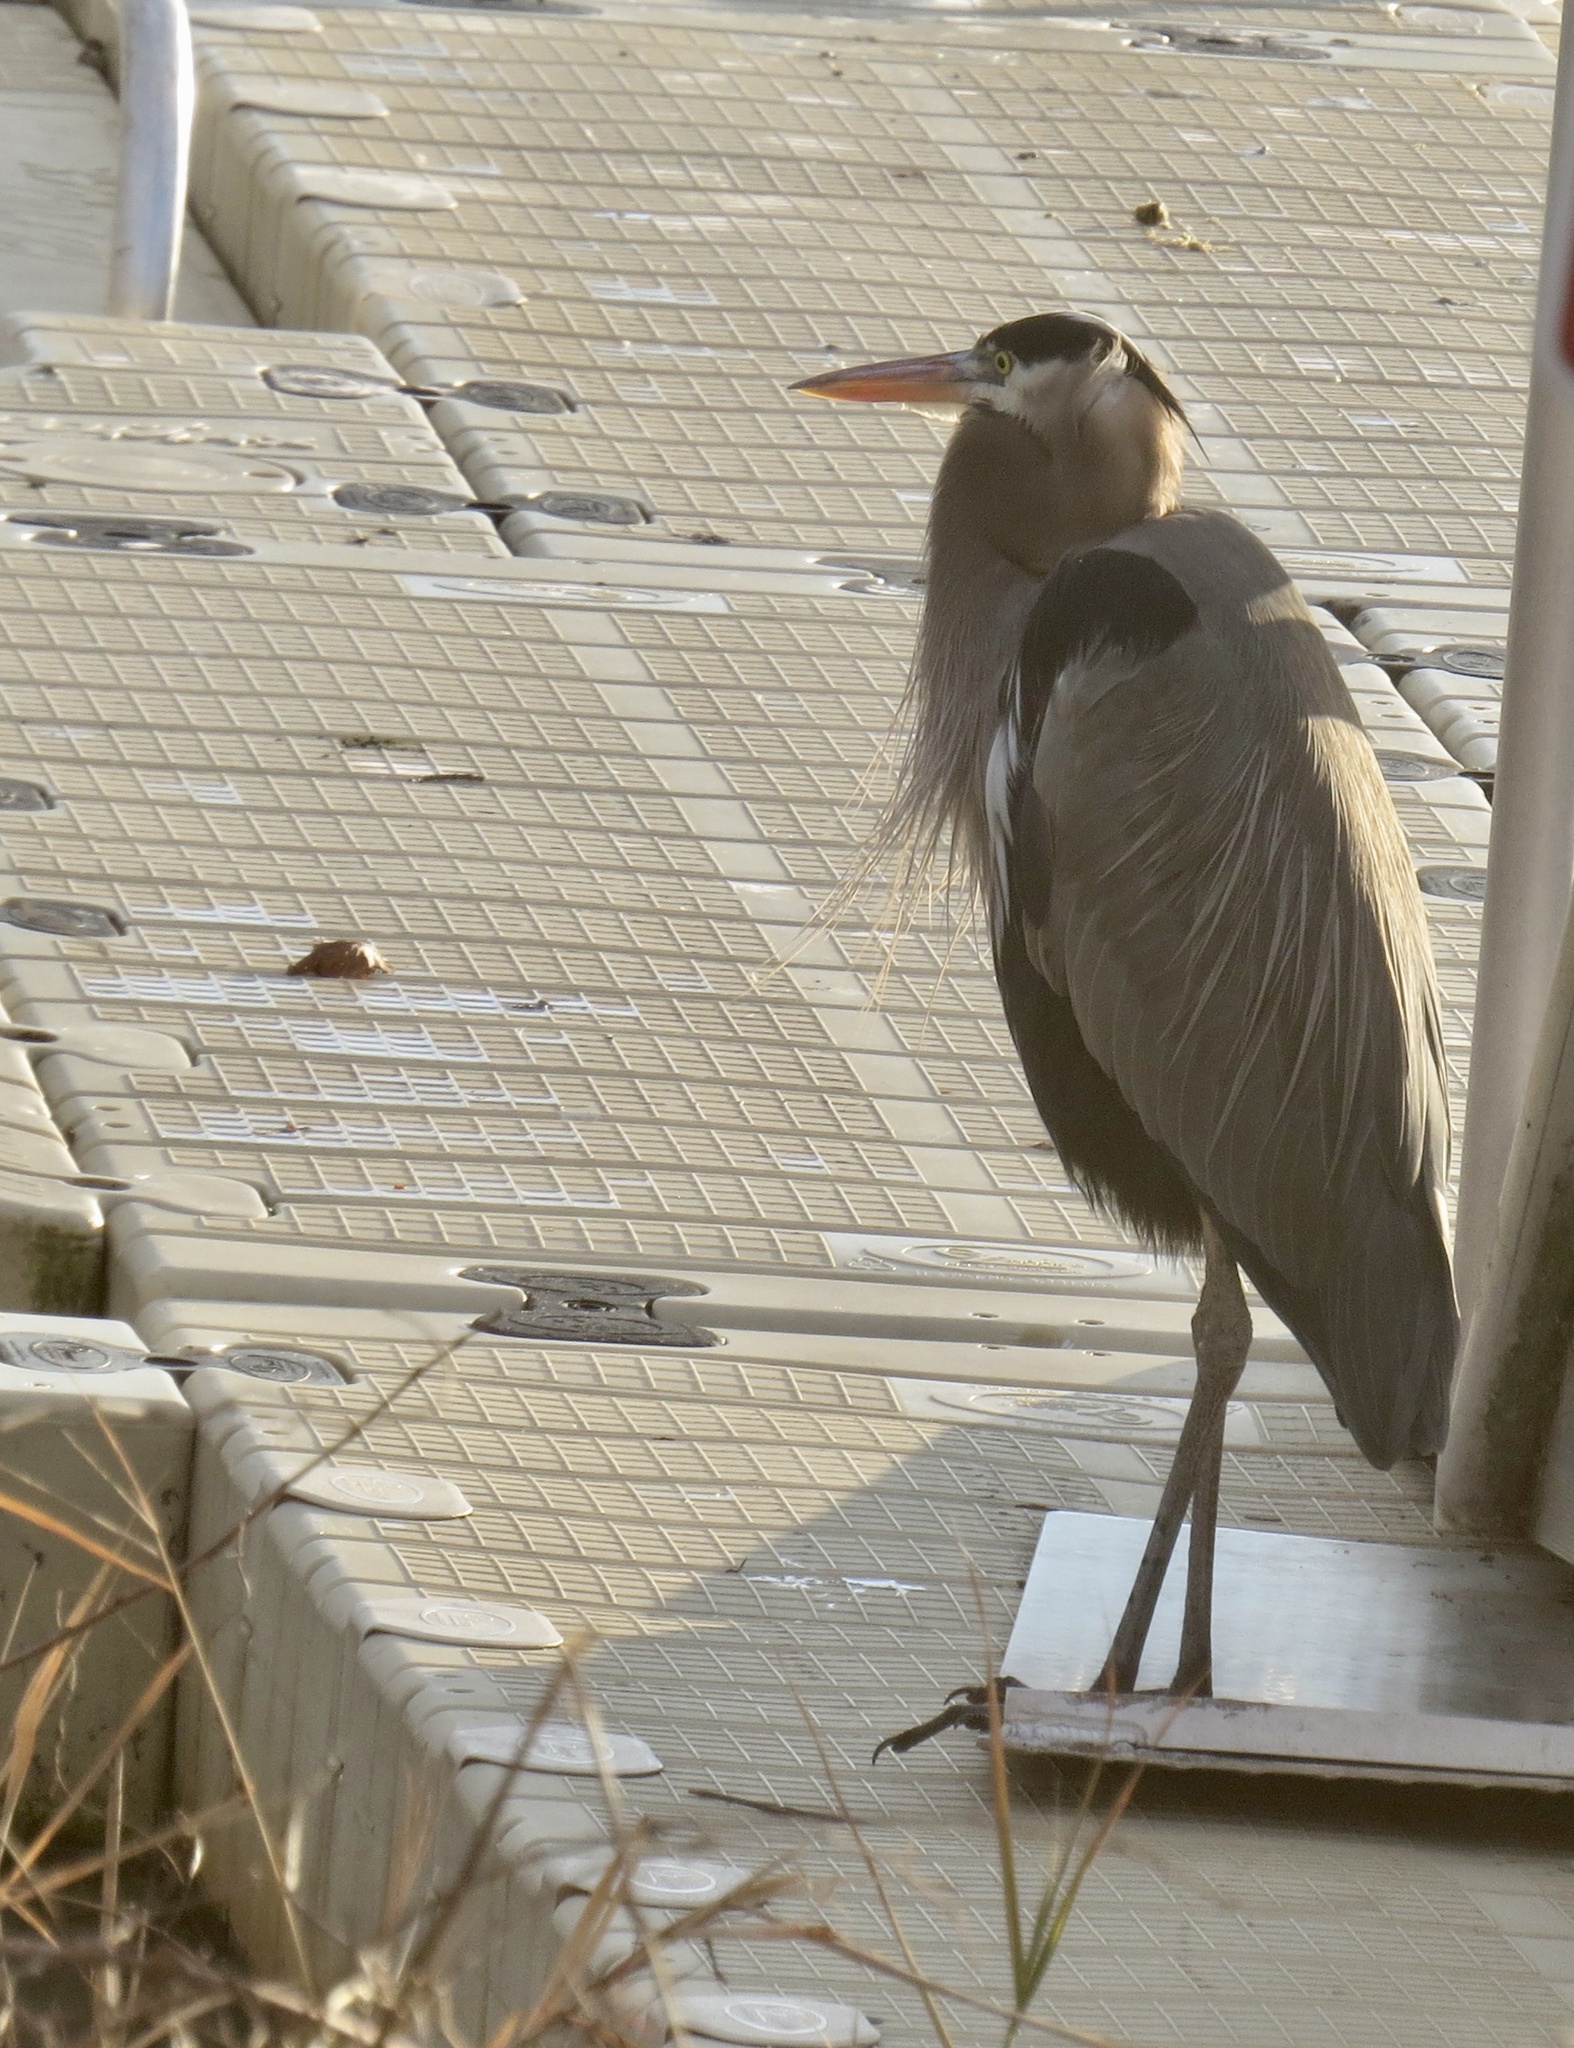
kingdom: Animalia
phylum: Chordata
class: Aves
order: Pelecaniformes
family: Ardeidae
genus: Ardea
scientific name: Ardea herodias
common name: Great blue heron
